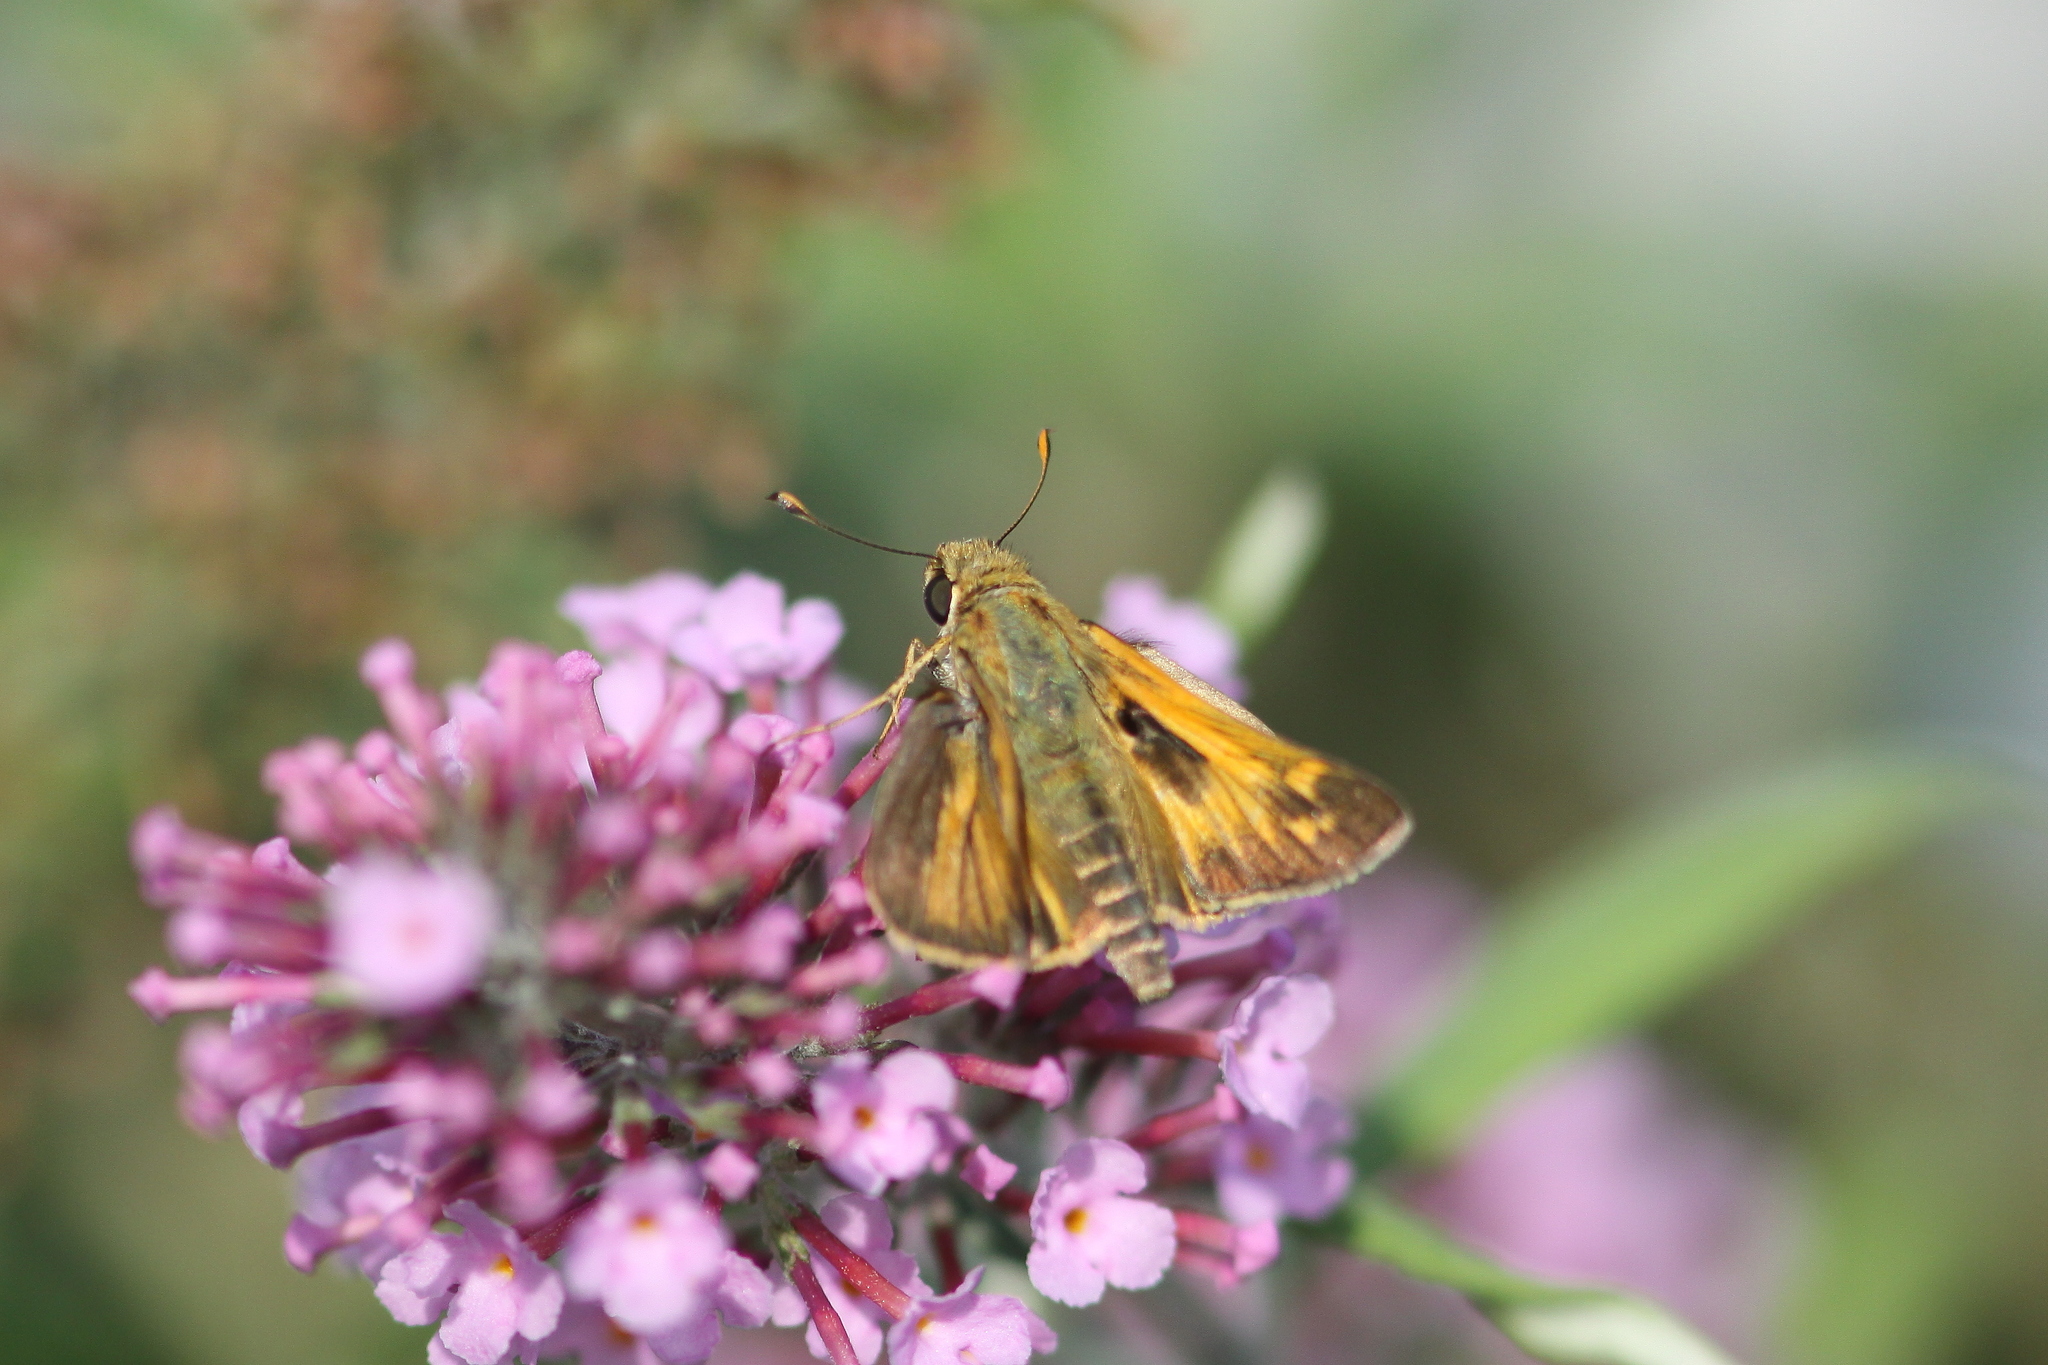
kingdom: Animalia
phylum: Arthropoda
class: Insecta
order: Lepidoptera
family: Hesperiidae
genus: Atalopedes
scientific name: Atalopedes
